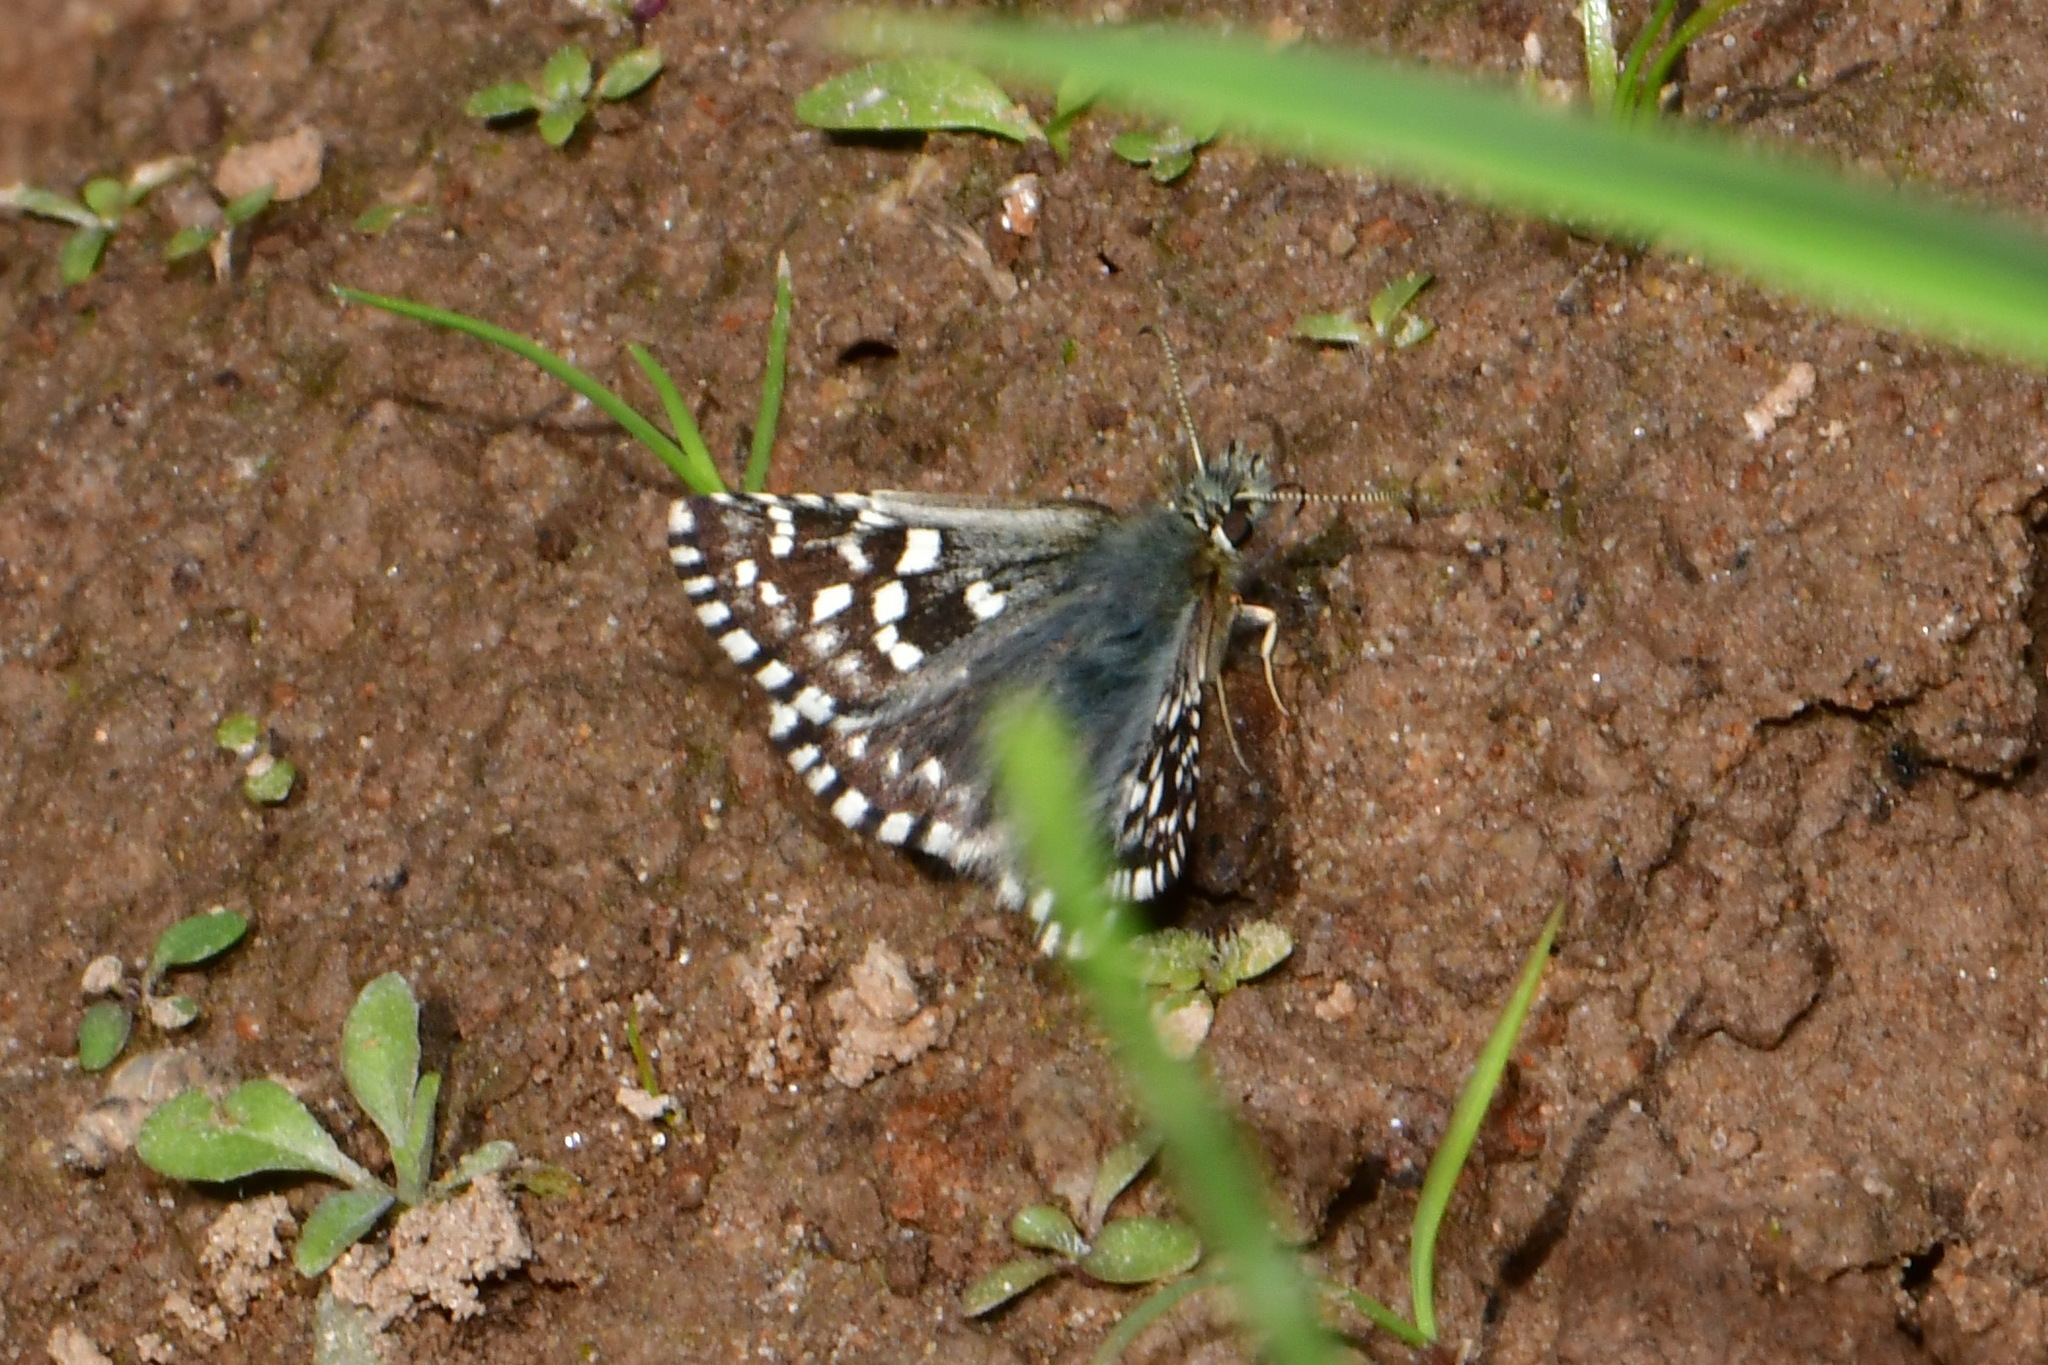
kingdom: Animalia
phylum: Arthropoda
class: Insecta
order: Lepidoptera
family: Hesperiidae
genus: Pyrgus
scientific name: Pyrgus malvae
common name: Grizzled skipper
